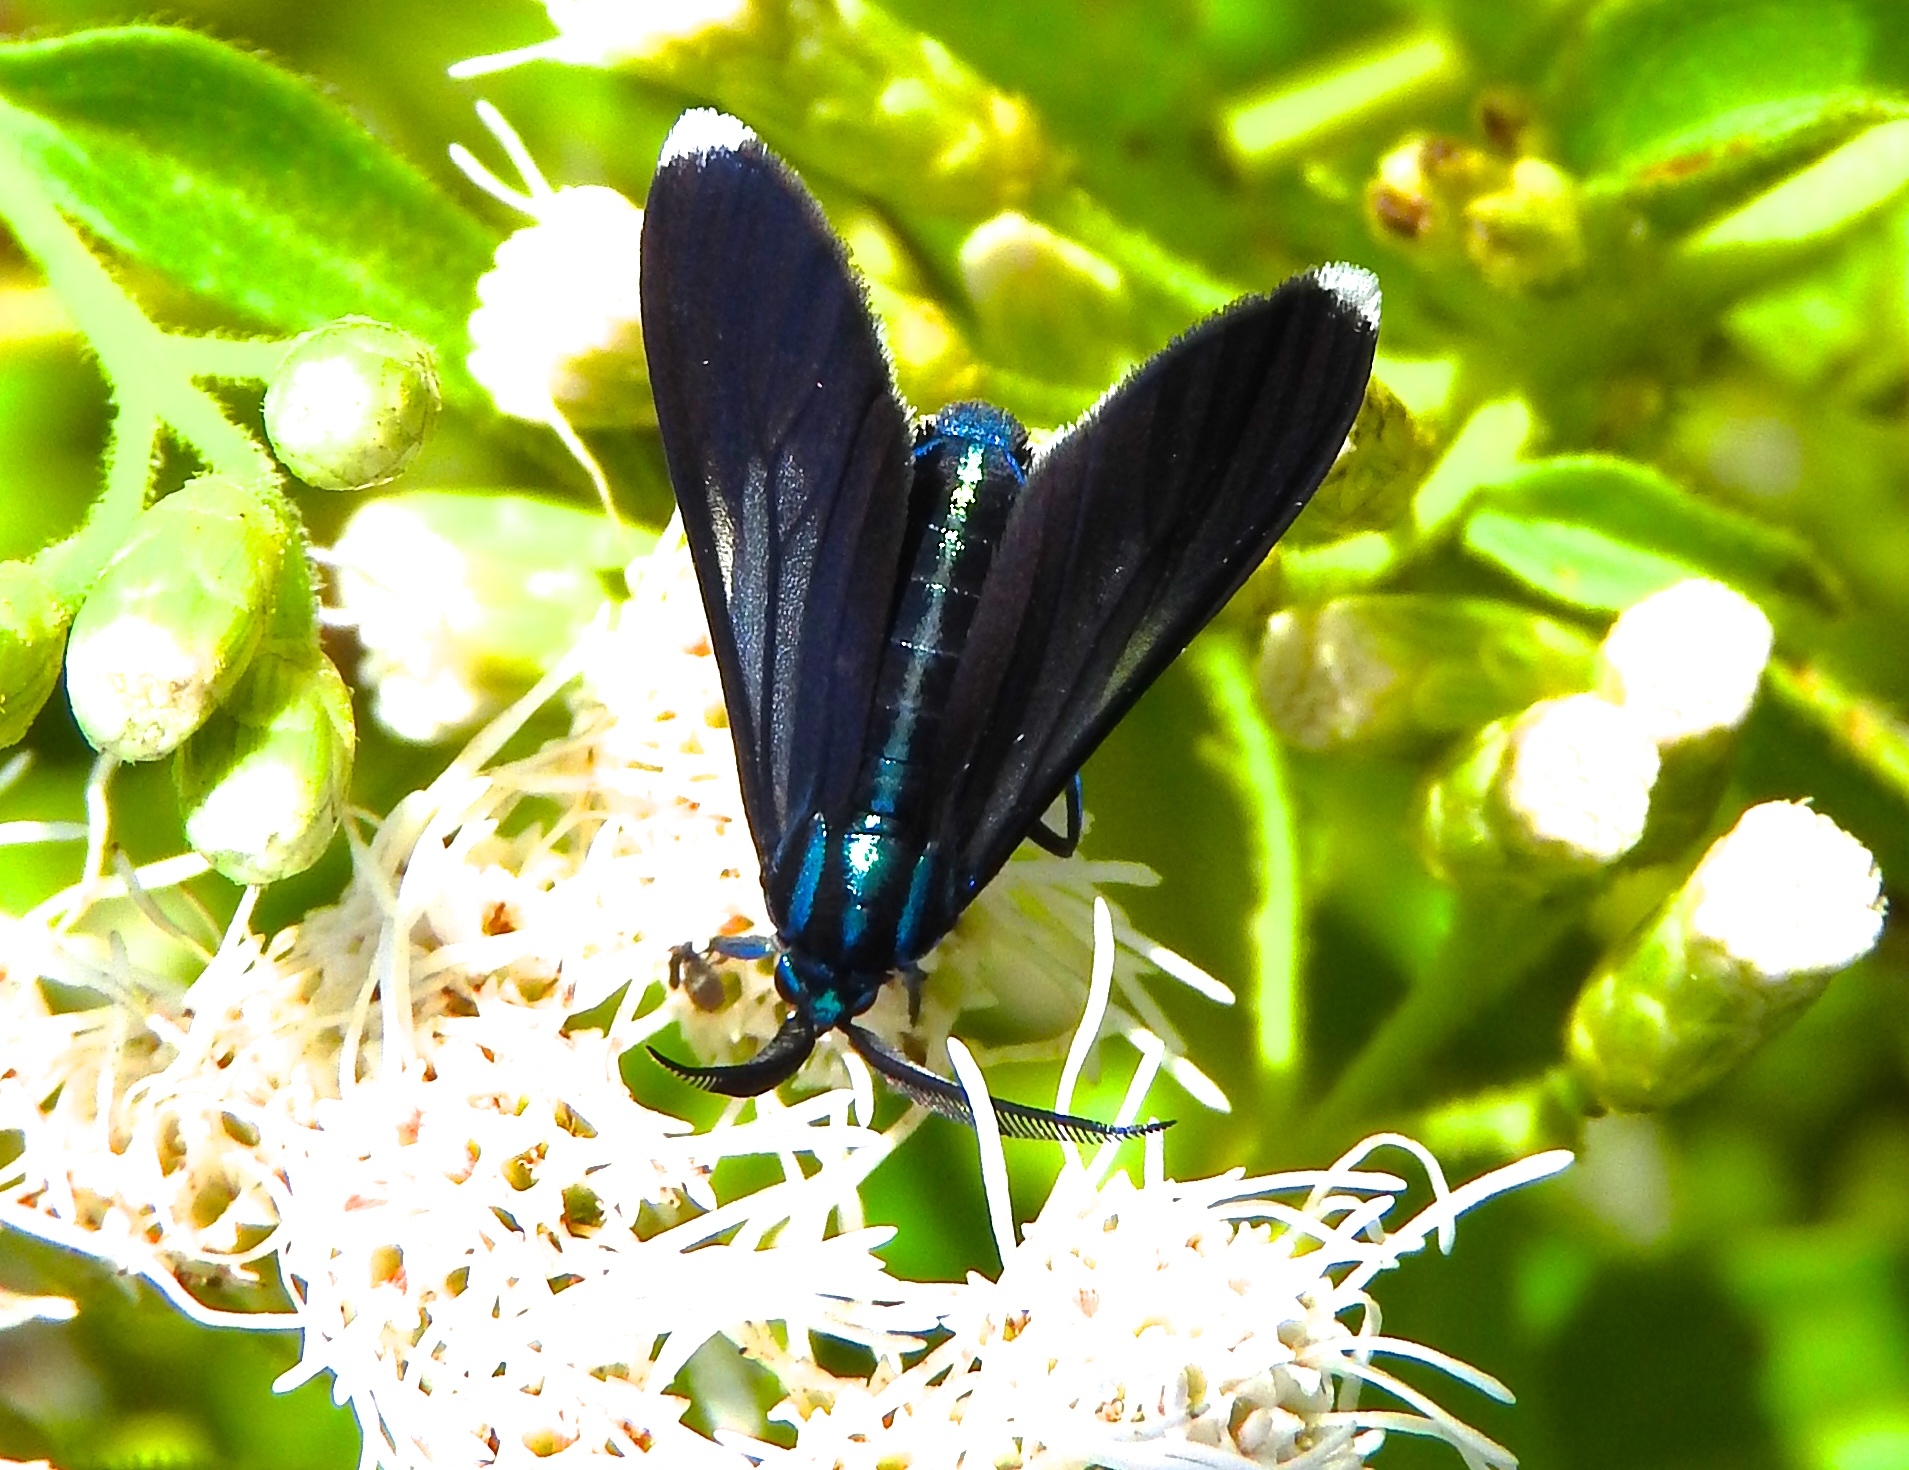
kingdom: Animalia
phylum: Arthropoda
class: Insecta
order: Lepidoptera
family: Erebidae
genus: Uranophora
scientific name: Uranophora leucotela
